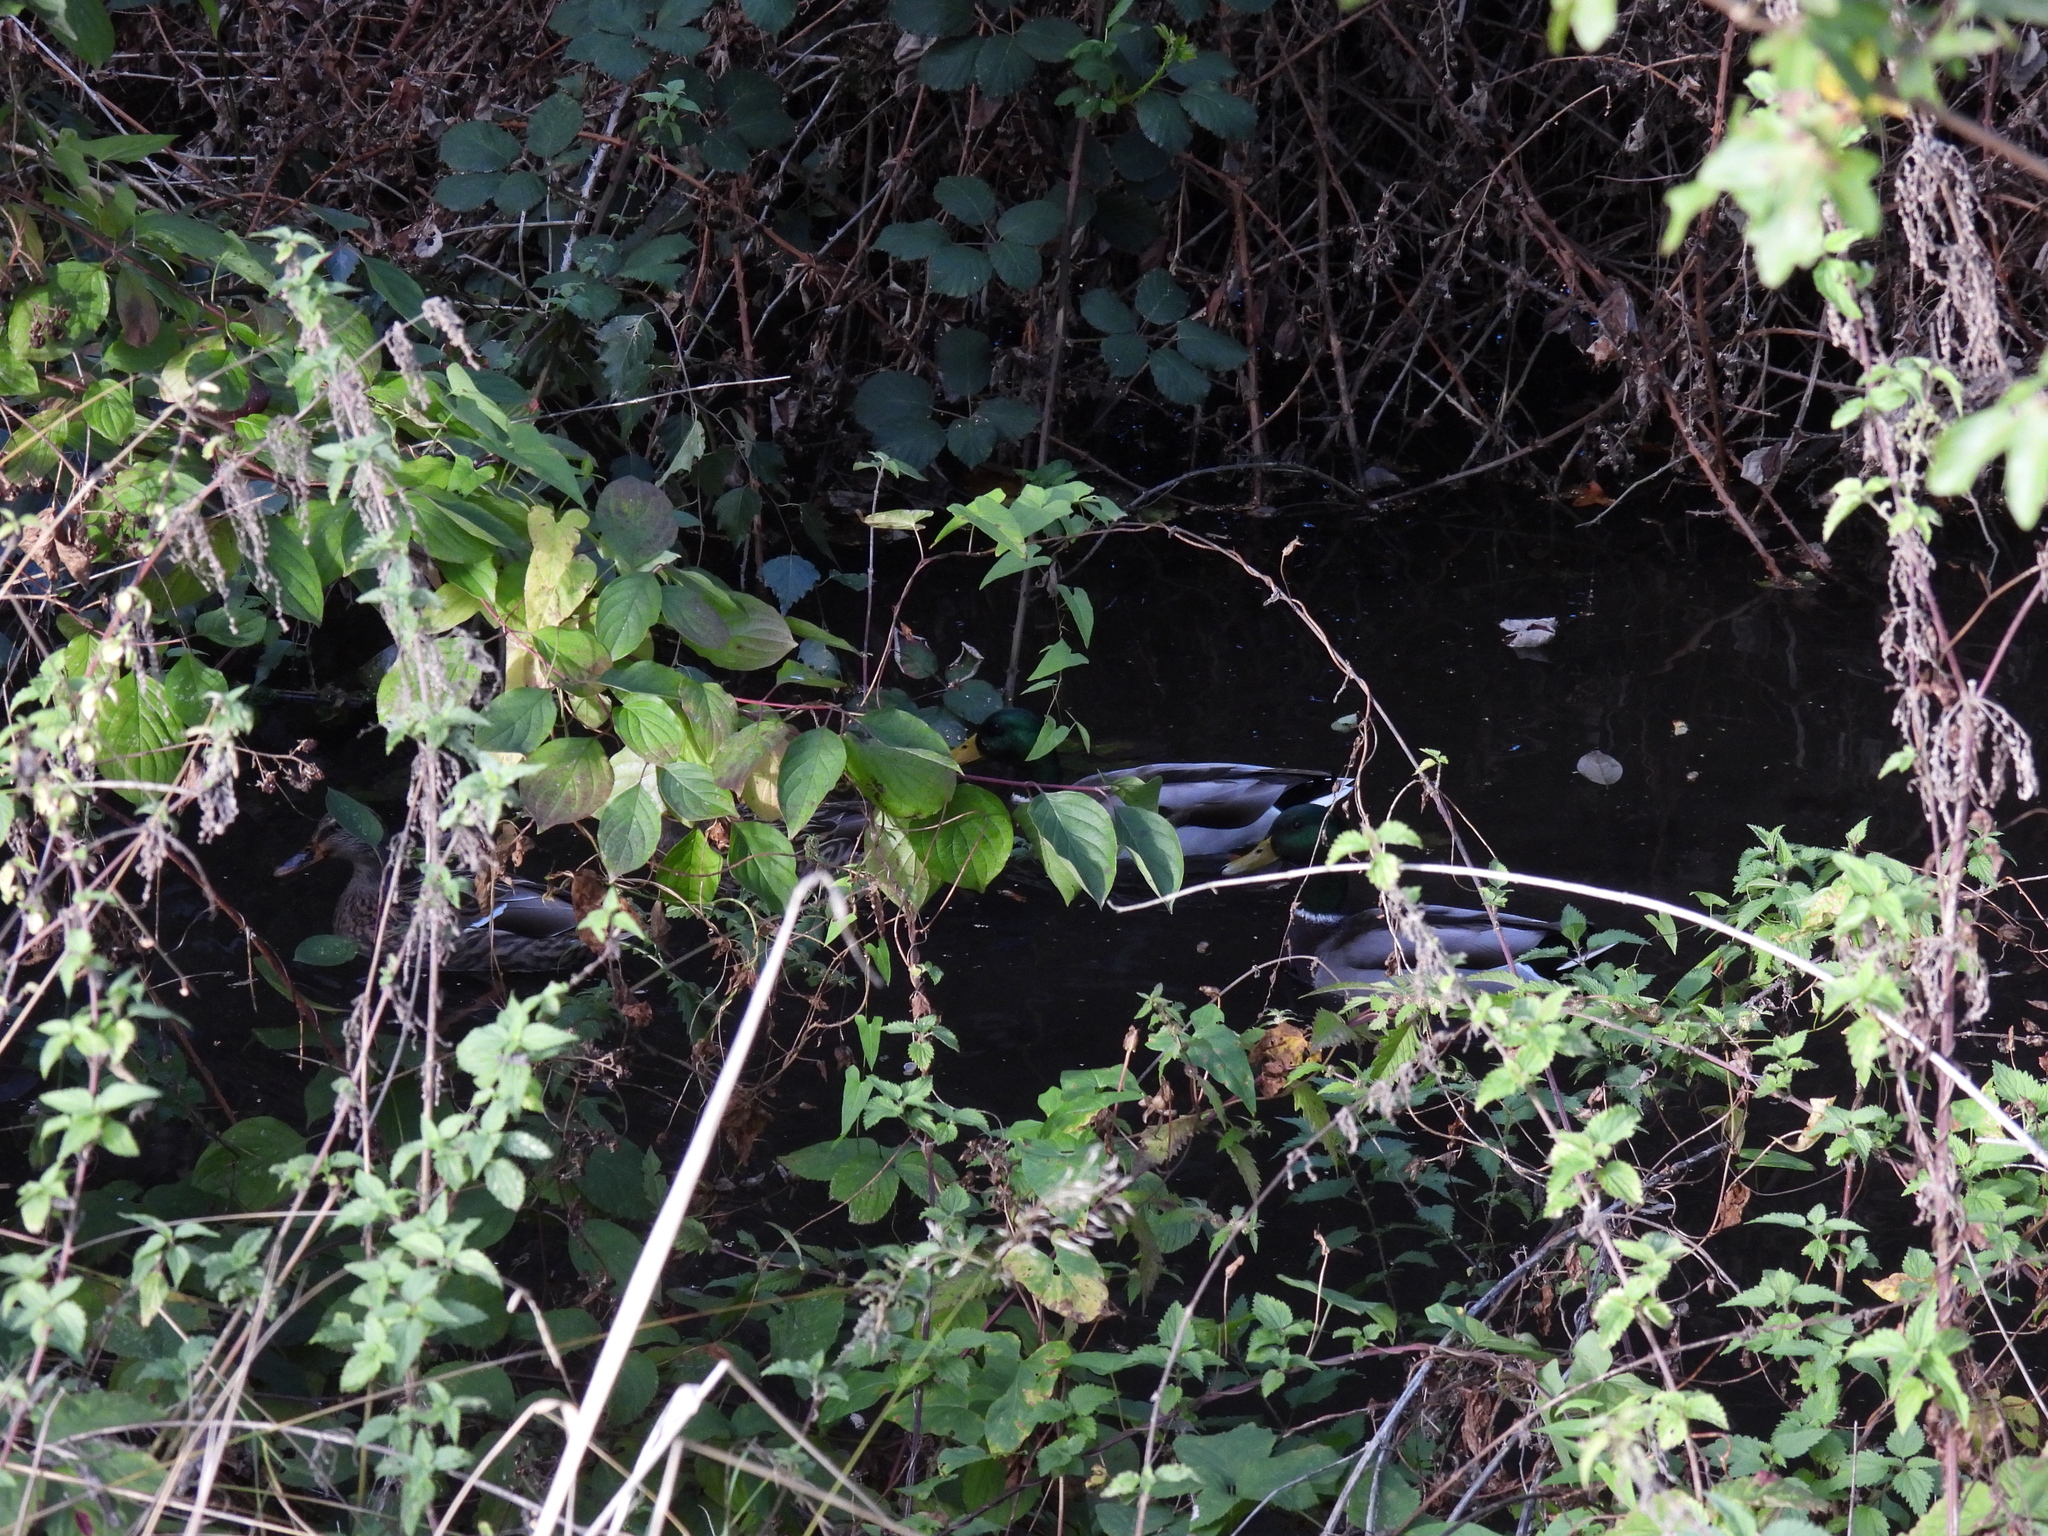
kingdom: Animalia
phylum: Chordata
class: Aves
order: Anseriformes
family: Anatidae
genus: Anas
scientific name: Anas platyrhynchos
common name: Mallard
